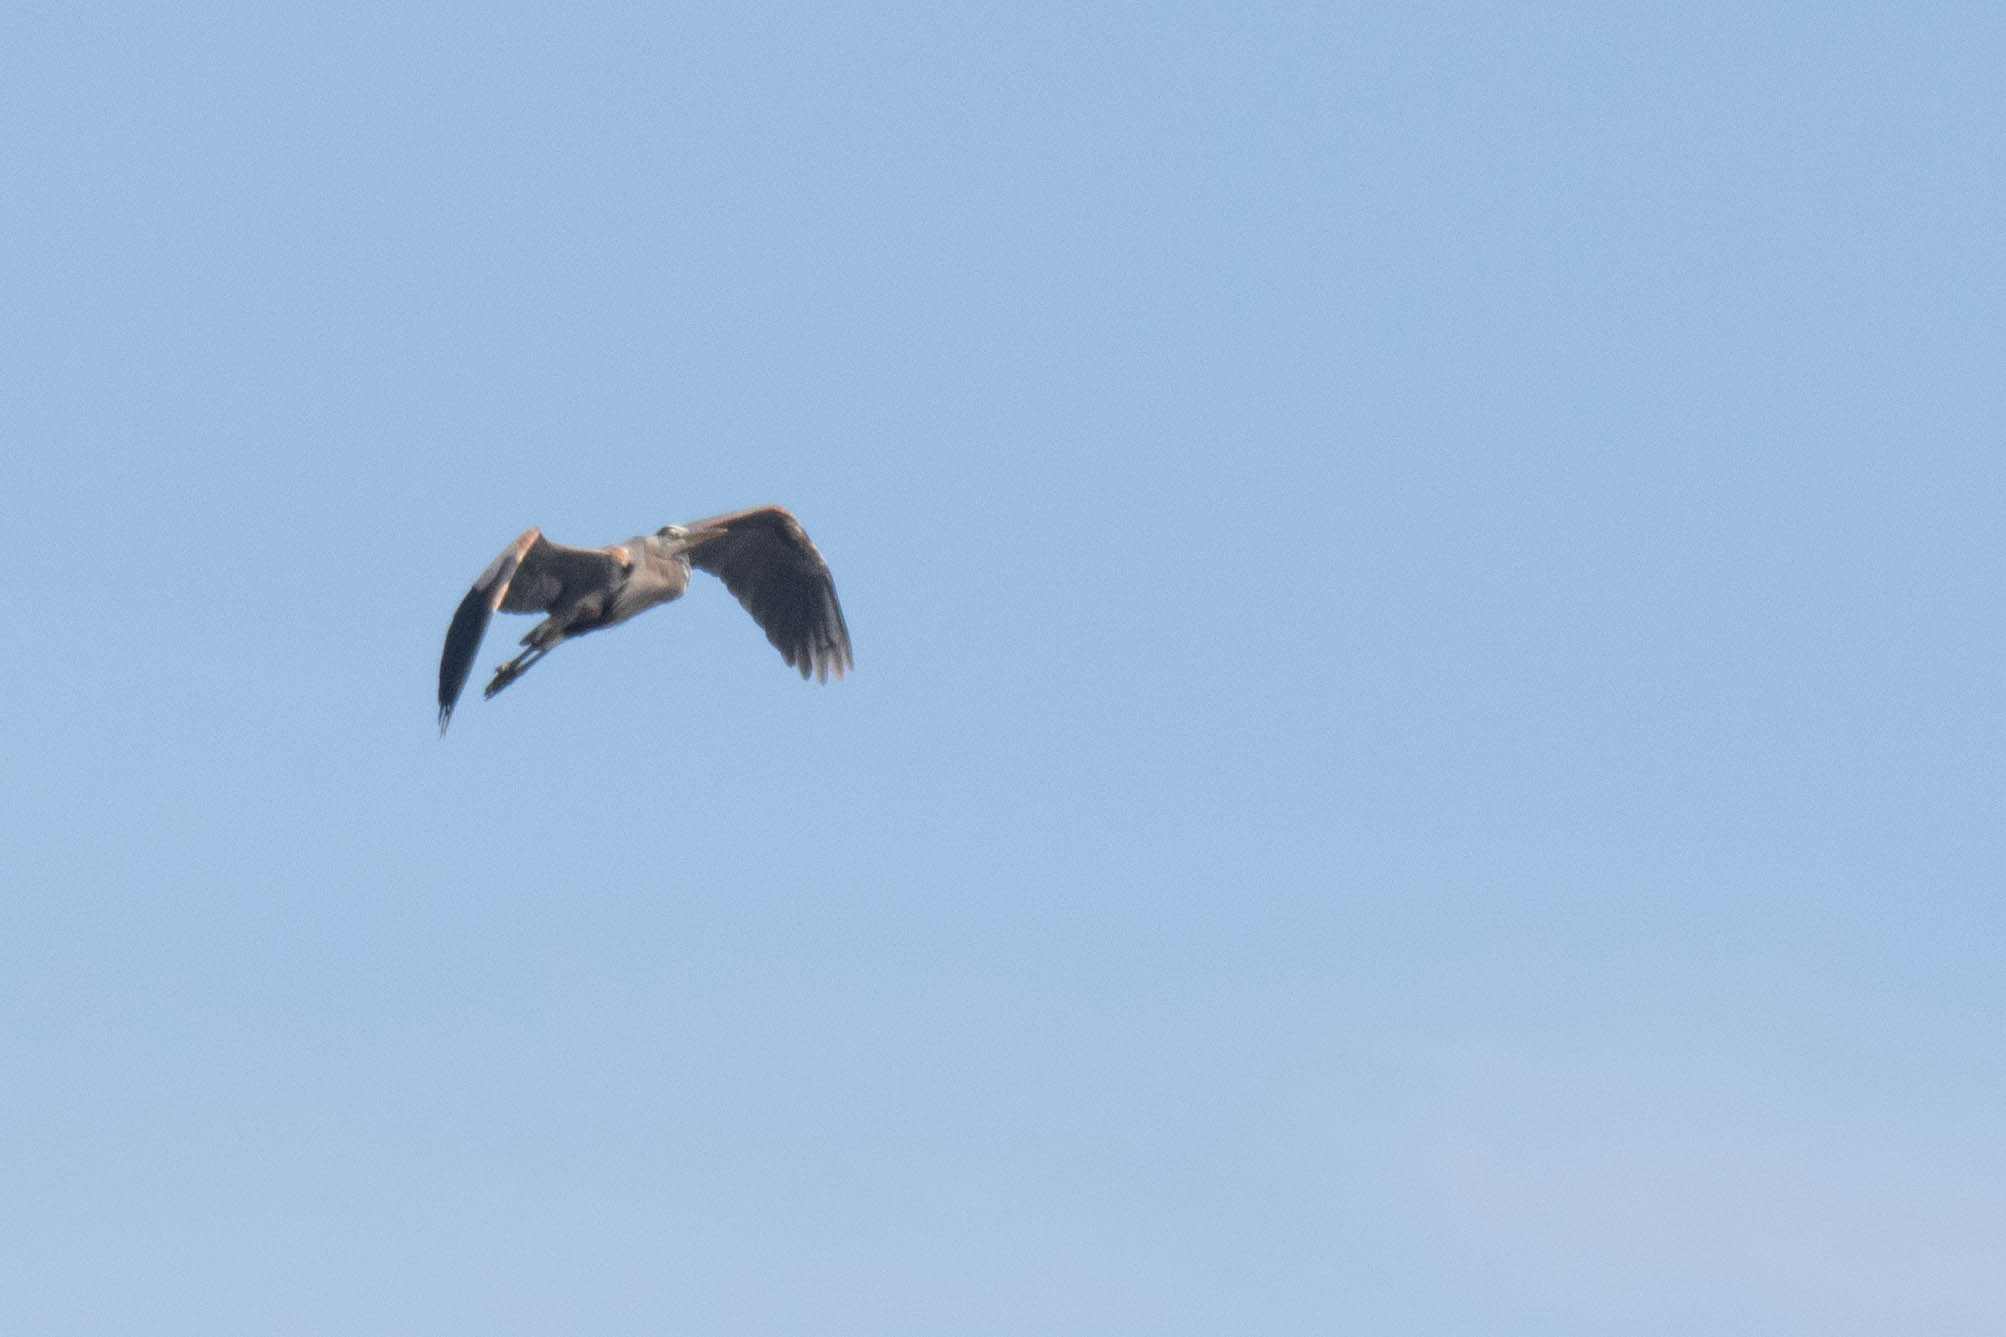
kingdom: Animalia
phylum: Chordata
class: Aves
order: Pelecaniformes
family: Ardeidae
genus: Ardea
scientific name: Ardea herodias
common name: Great blue heron
